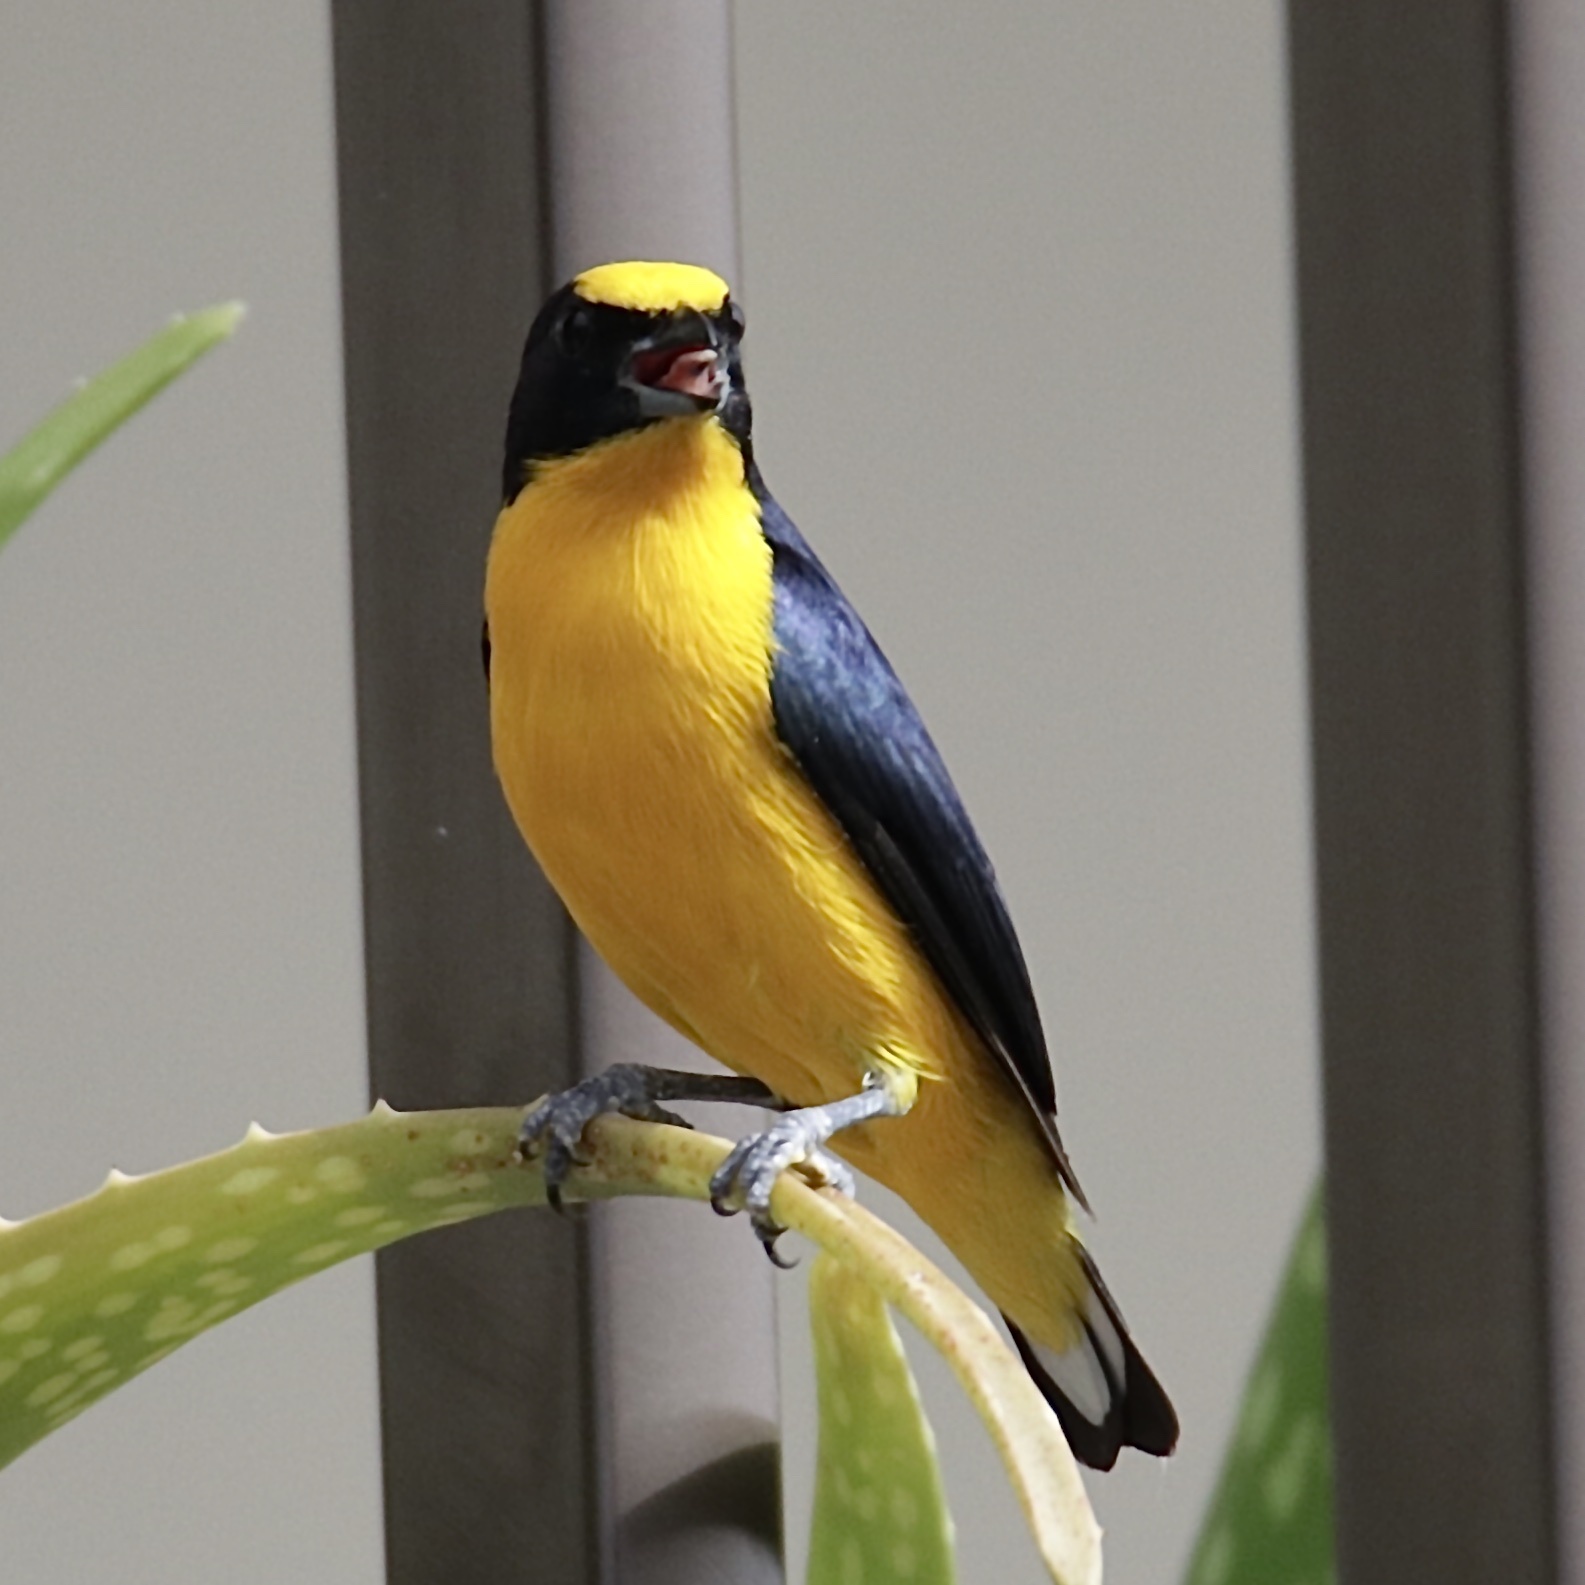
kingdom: Animalia
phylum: Chordata
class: Aves
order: Passeriformes
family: Fringillidae
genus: Euphonia
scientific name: Euphonia laniirostris
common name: Thick-billed euphonia
